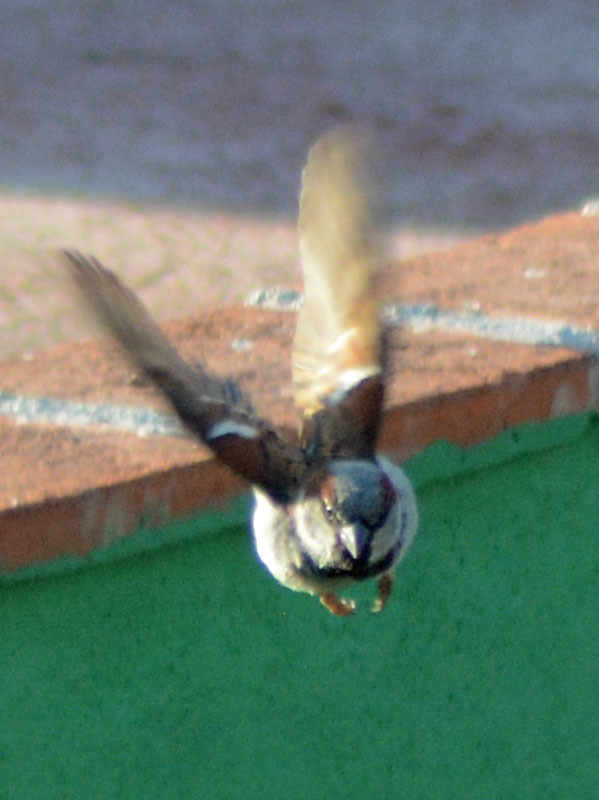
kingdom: Animalia
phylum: Chordata
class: Aves
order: Passeriformes
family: Passeridae
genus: Passer
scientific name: Passer domesticus
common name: House sparrow
